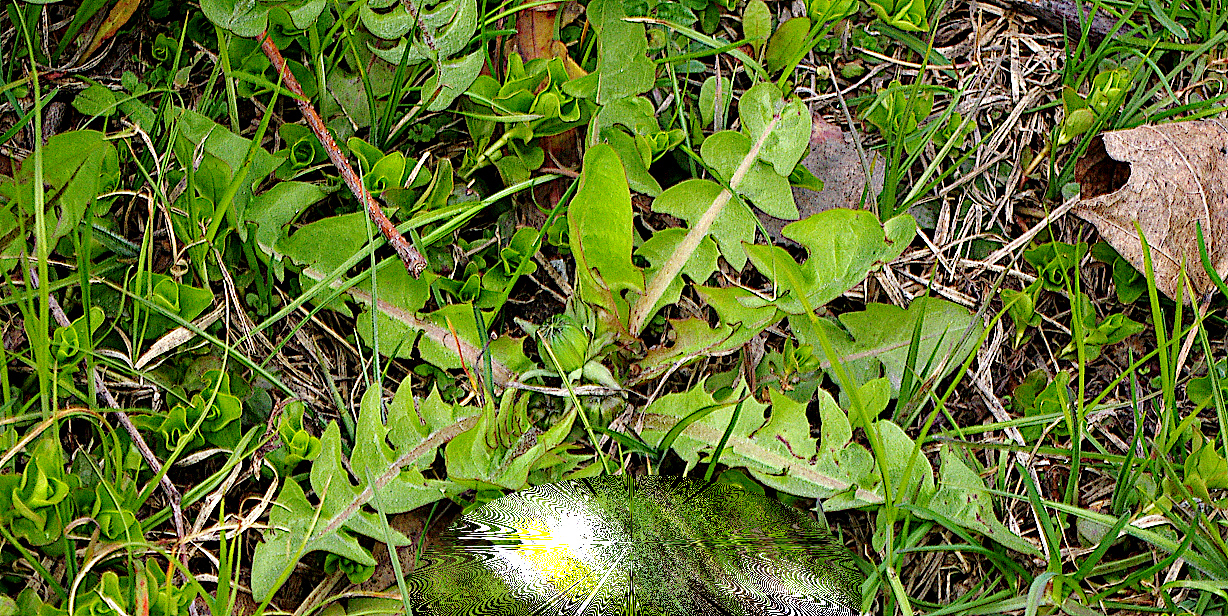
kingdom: Plantae
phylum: Tracheophyta
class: Magnoliopsida
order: Asterales
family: Asteraceae
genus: Taraxacum
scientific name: Taraxacum officinale
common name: Common dandelion
